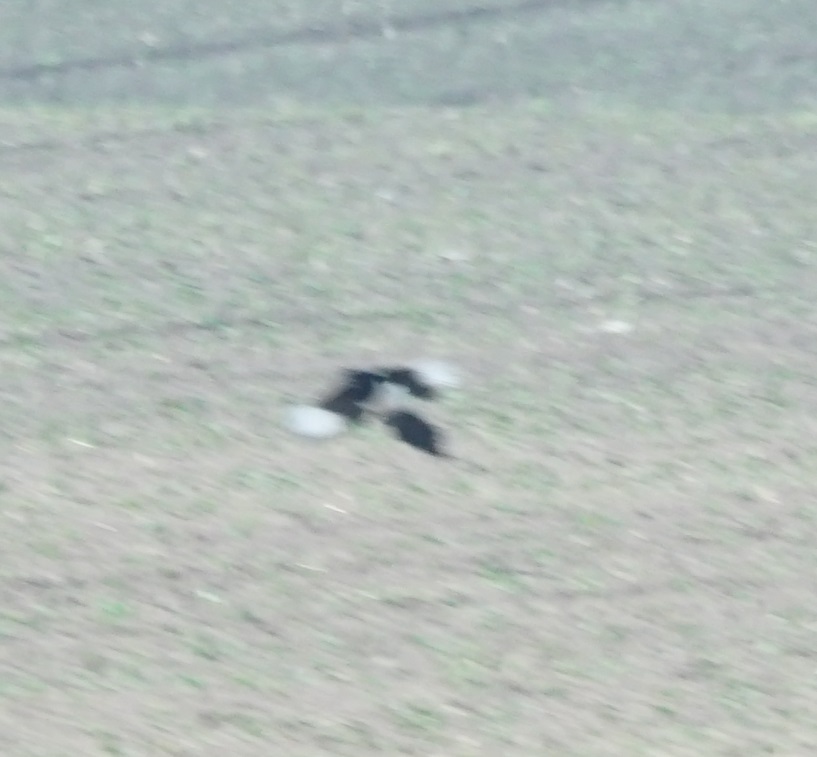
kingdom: Animalia
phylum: Chordata
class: Aves
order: Passeriformes
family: Corvidae
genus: Pica
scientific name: Pica pica
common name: Eurasian magpie
